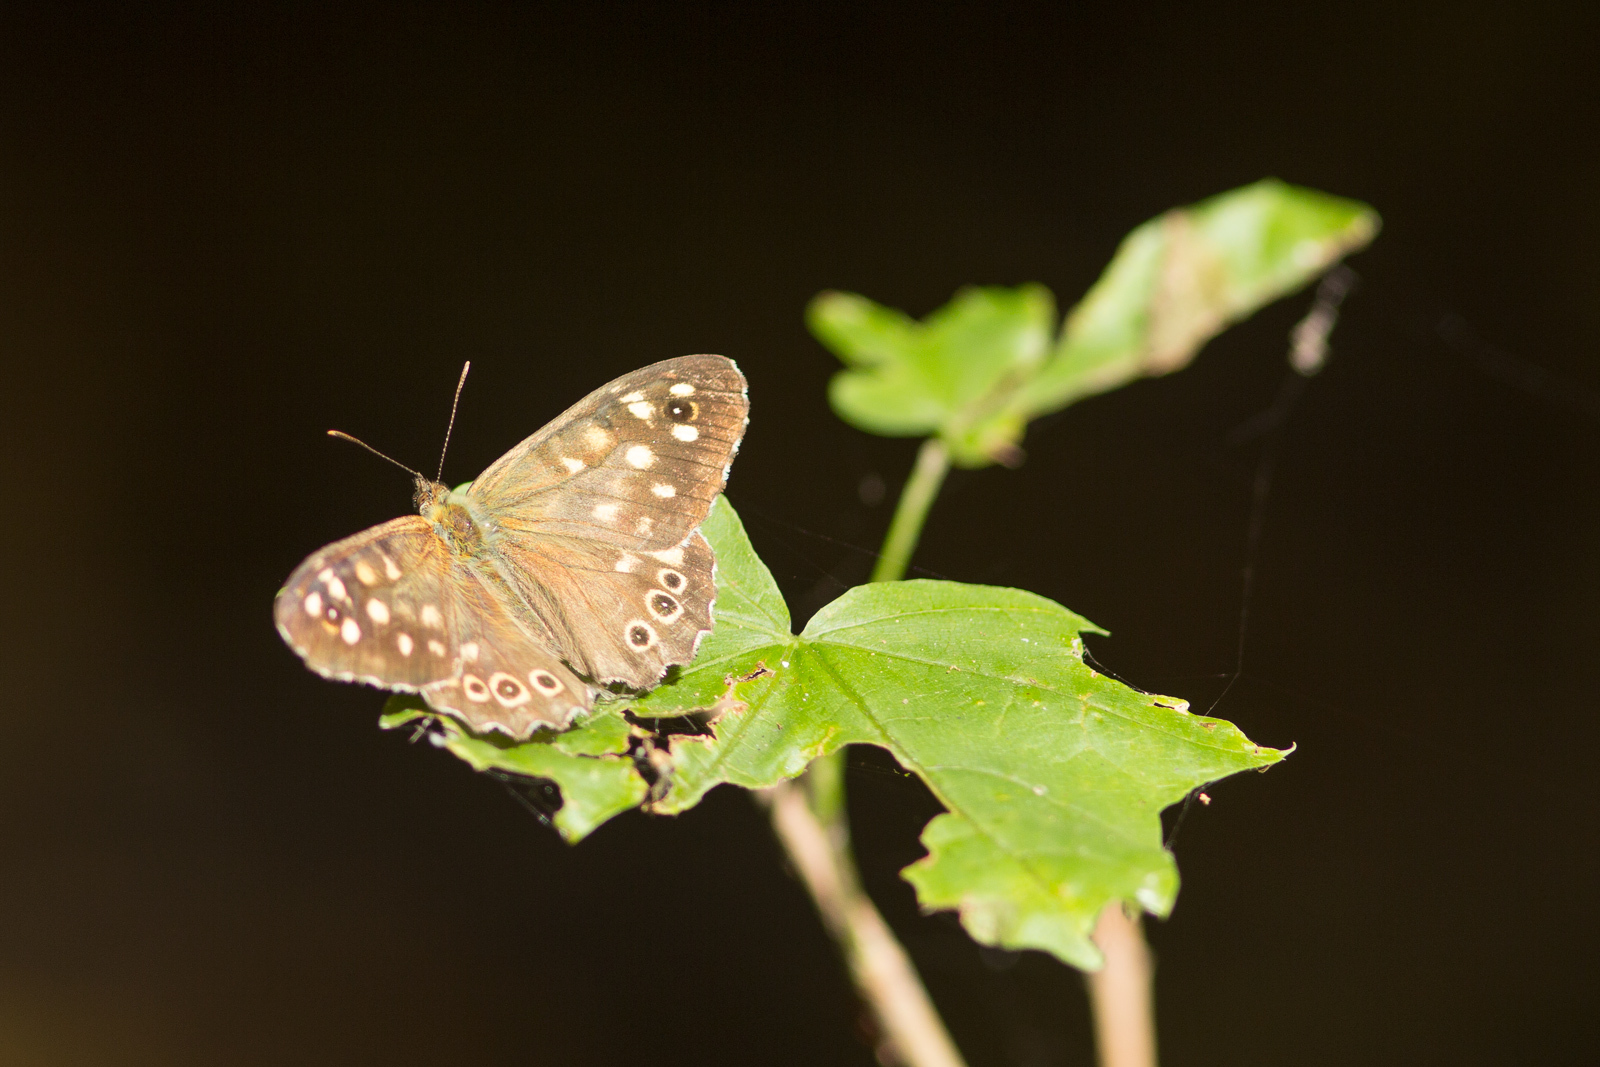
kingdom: Animalia
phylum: Arthropoda
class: Insecta
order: Lepidoptera
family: Nymphalidae
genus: Pararge
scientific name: Pararge aegeria
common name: Speckled wood
